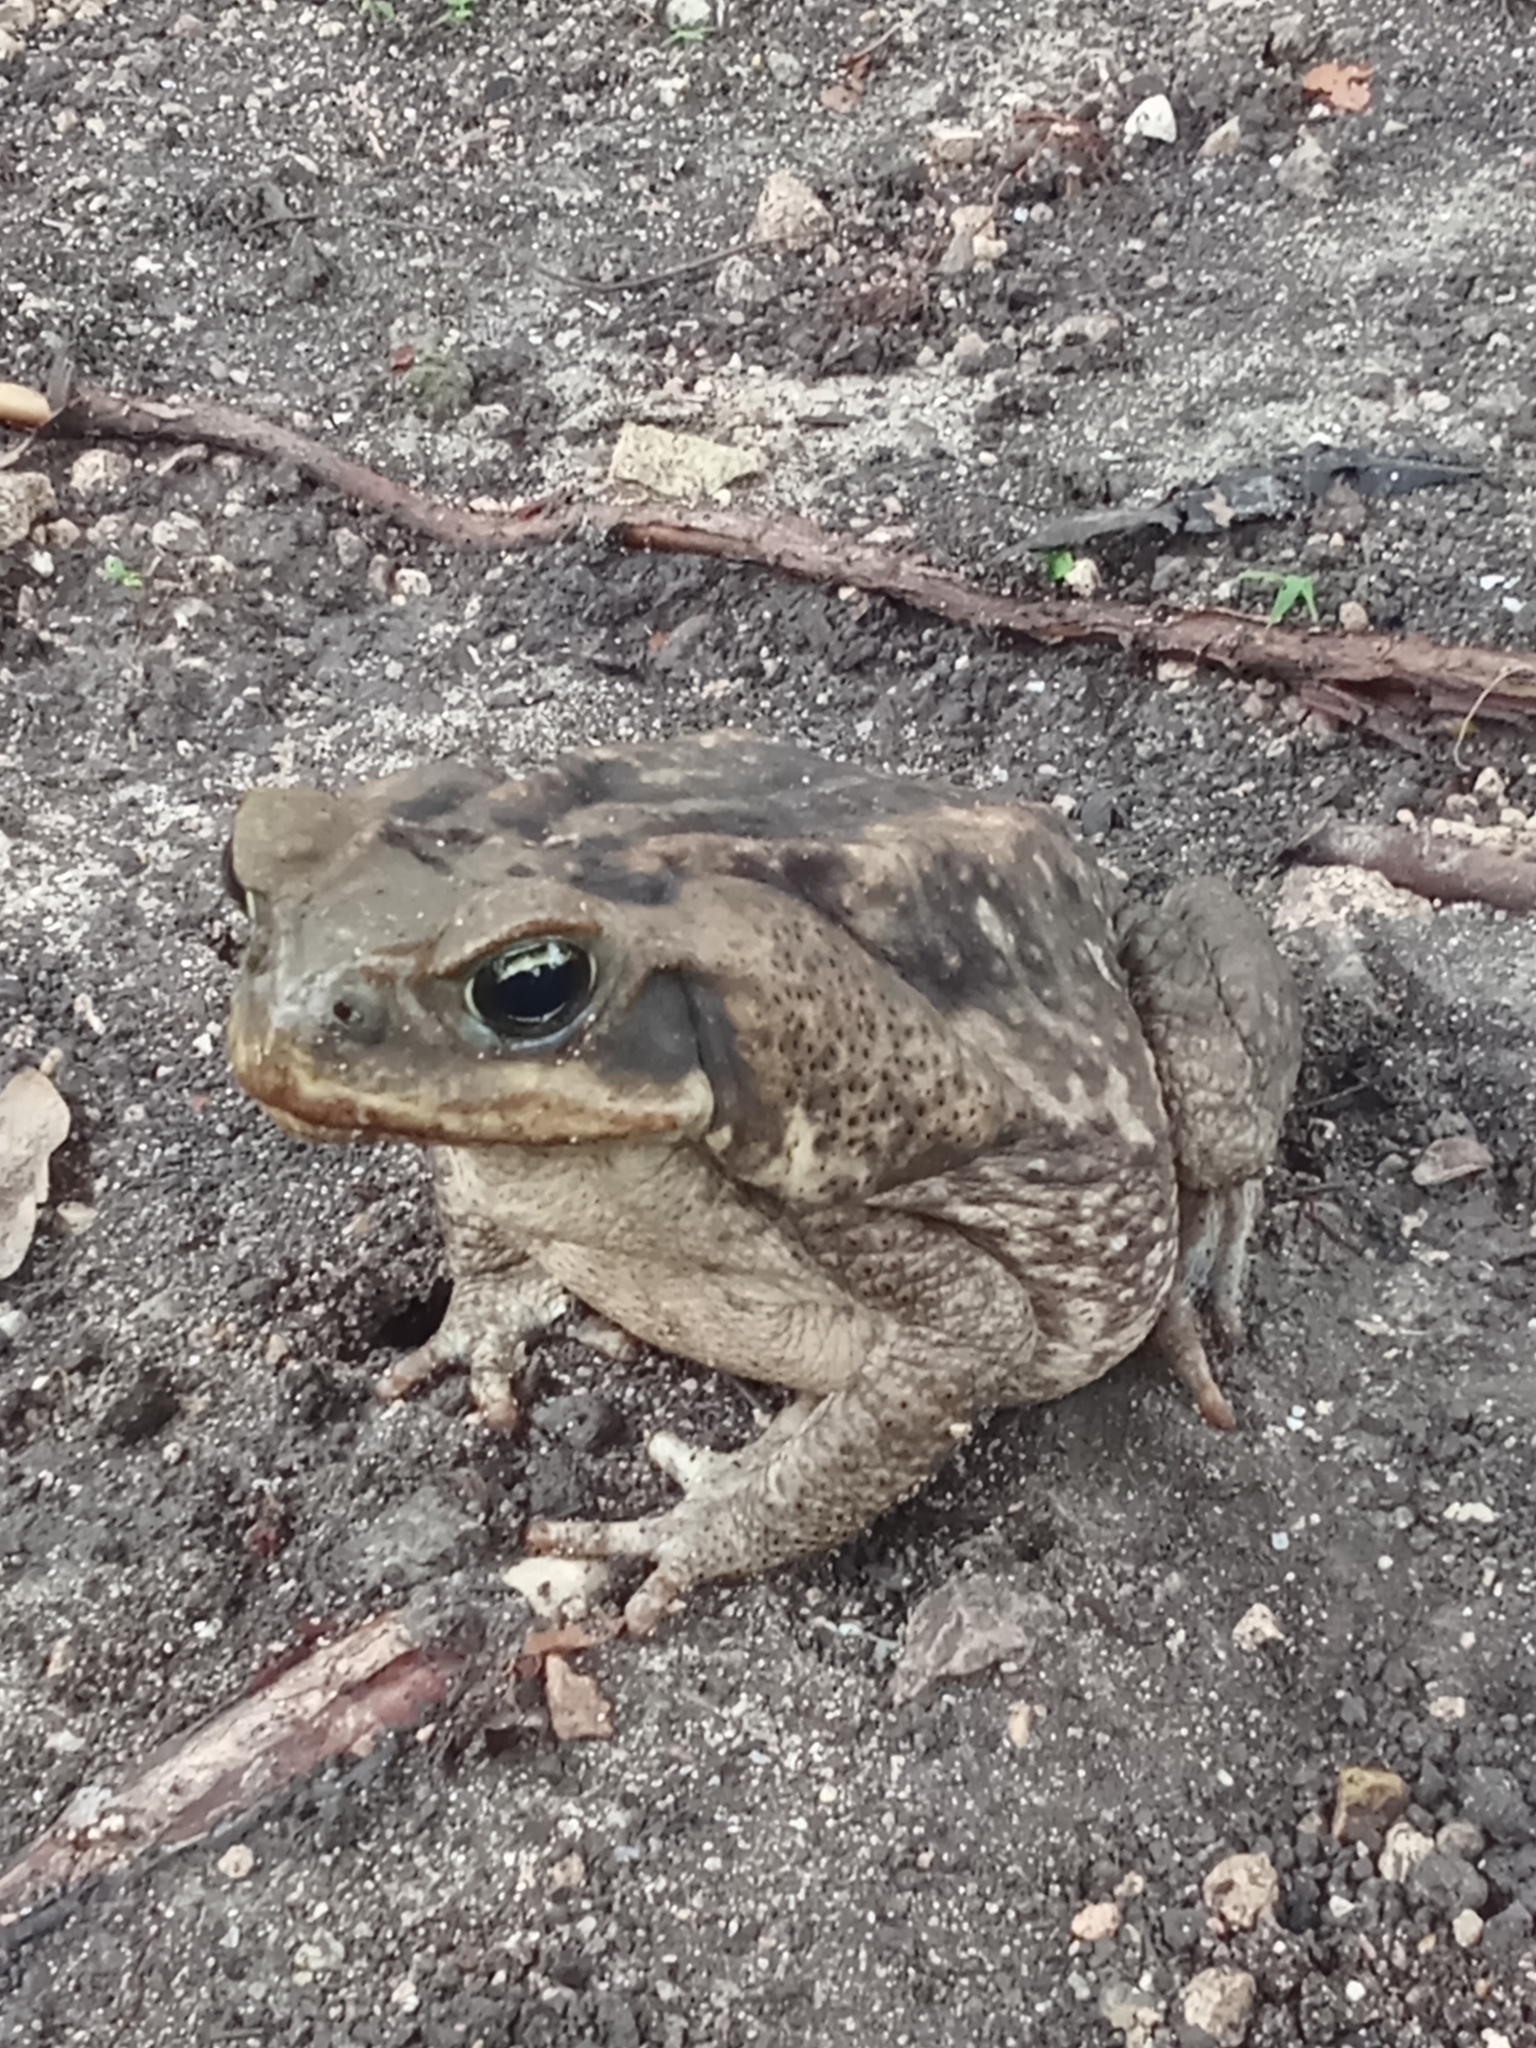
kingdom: Animalia
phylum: Chordata
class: Amphibia
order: Anura
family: Bufonidae
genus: Rhinella
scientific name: Rhinella horribilis
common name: Mesoamerican cane toad
